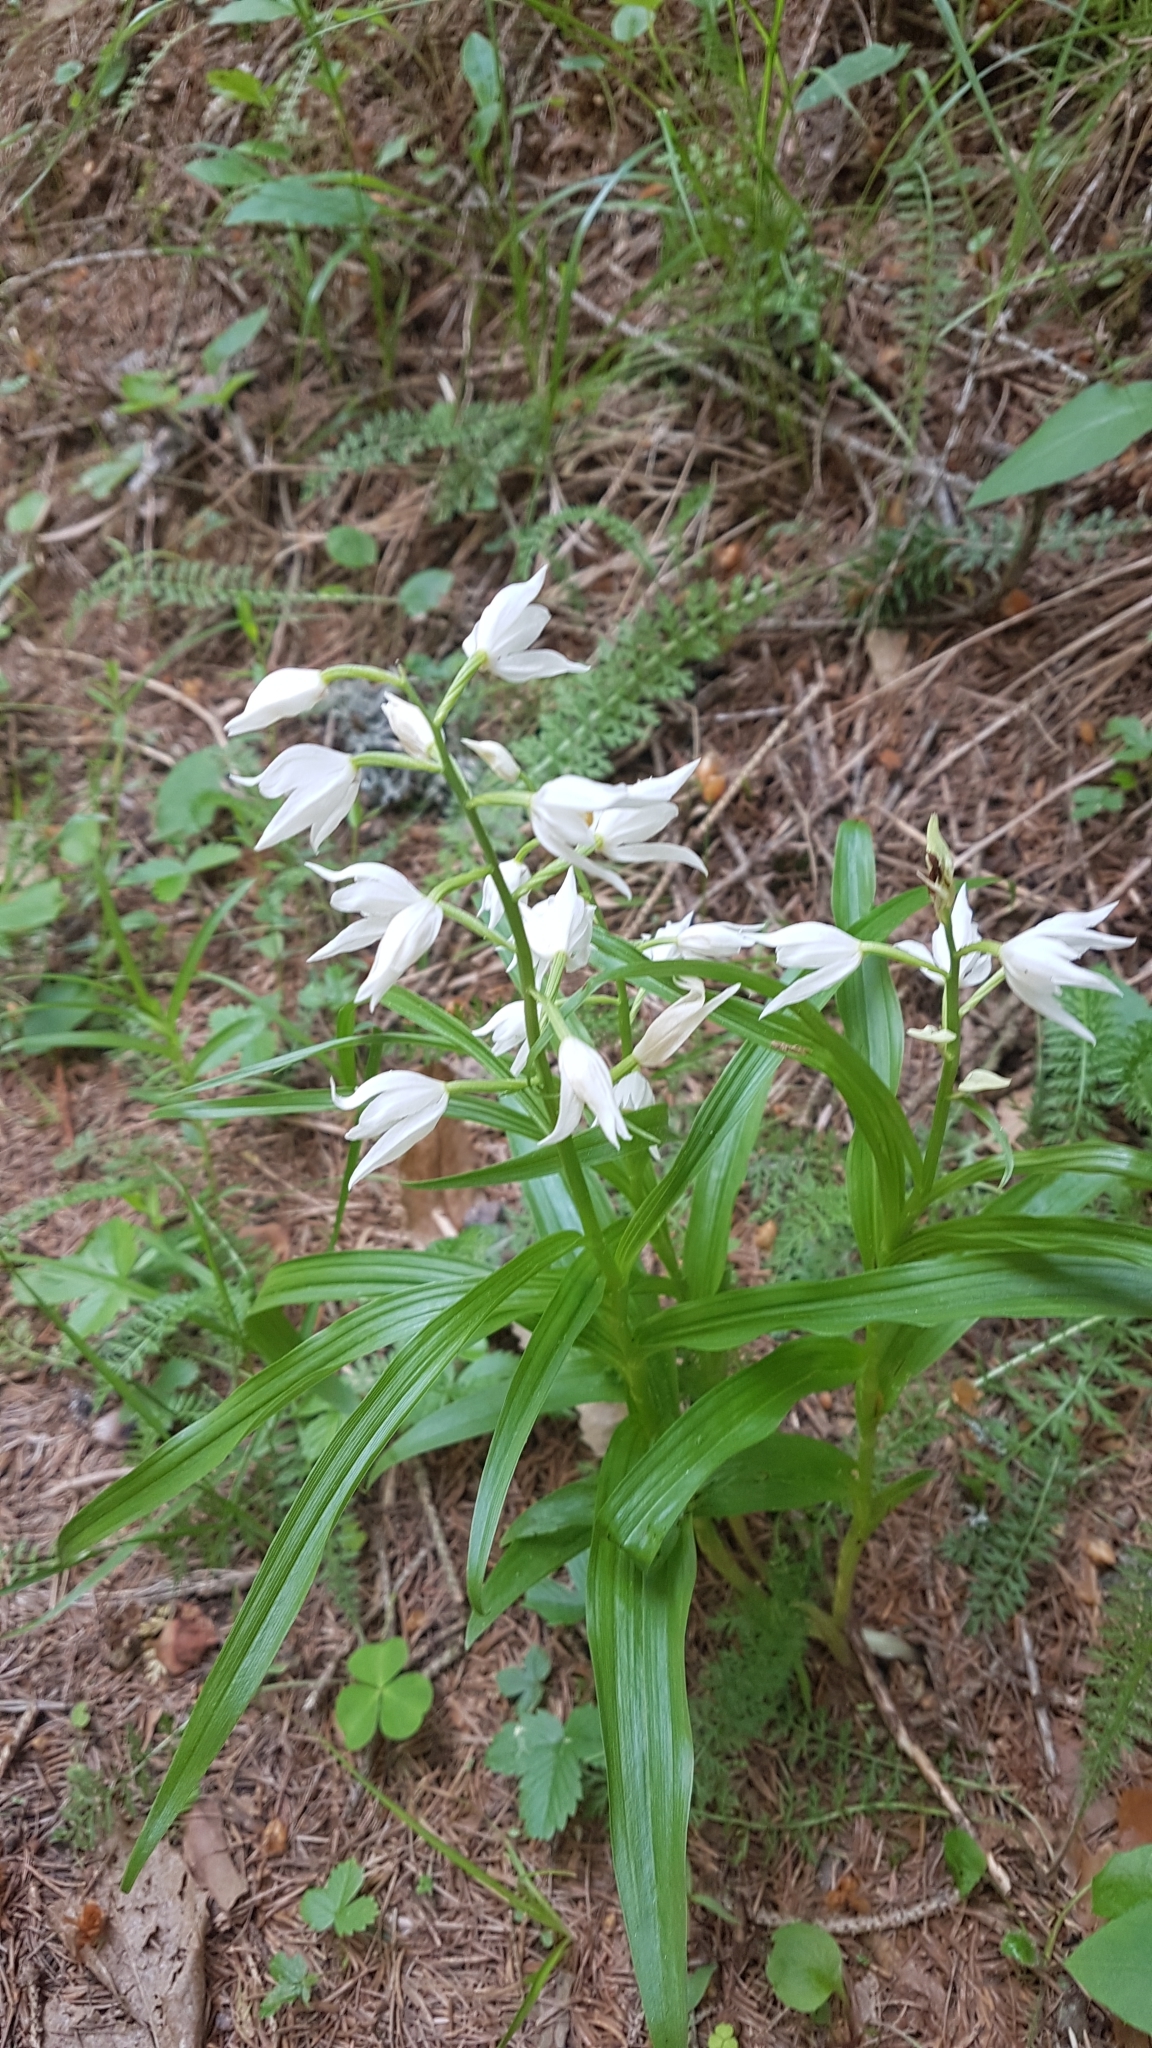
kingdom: Plantae
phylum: Tracheophyta
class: Liliopsida
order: Asparagales
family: Orchidaceae
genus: Cephalanthera
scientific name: Cephalanthera longifolia
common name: Narrow-leaved helleborine
